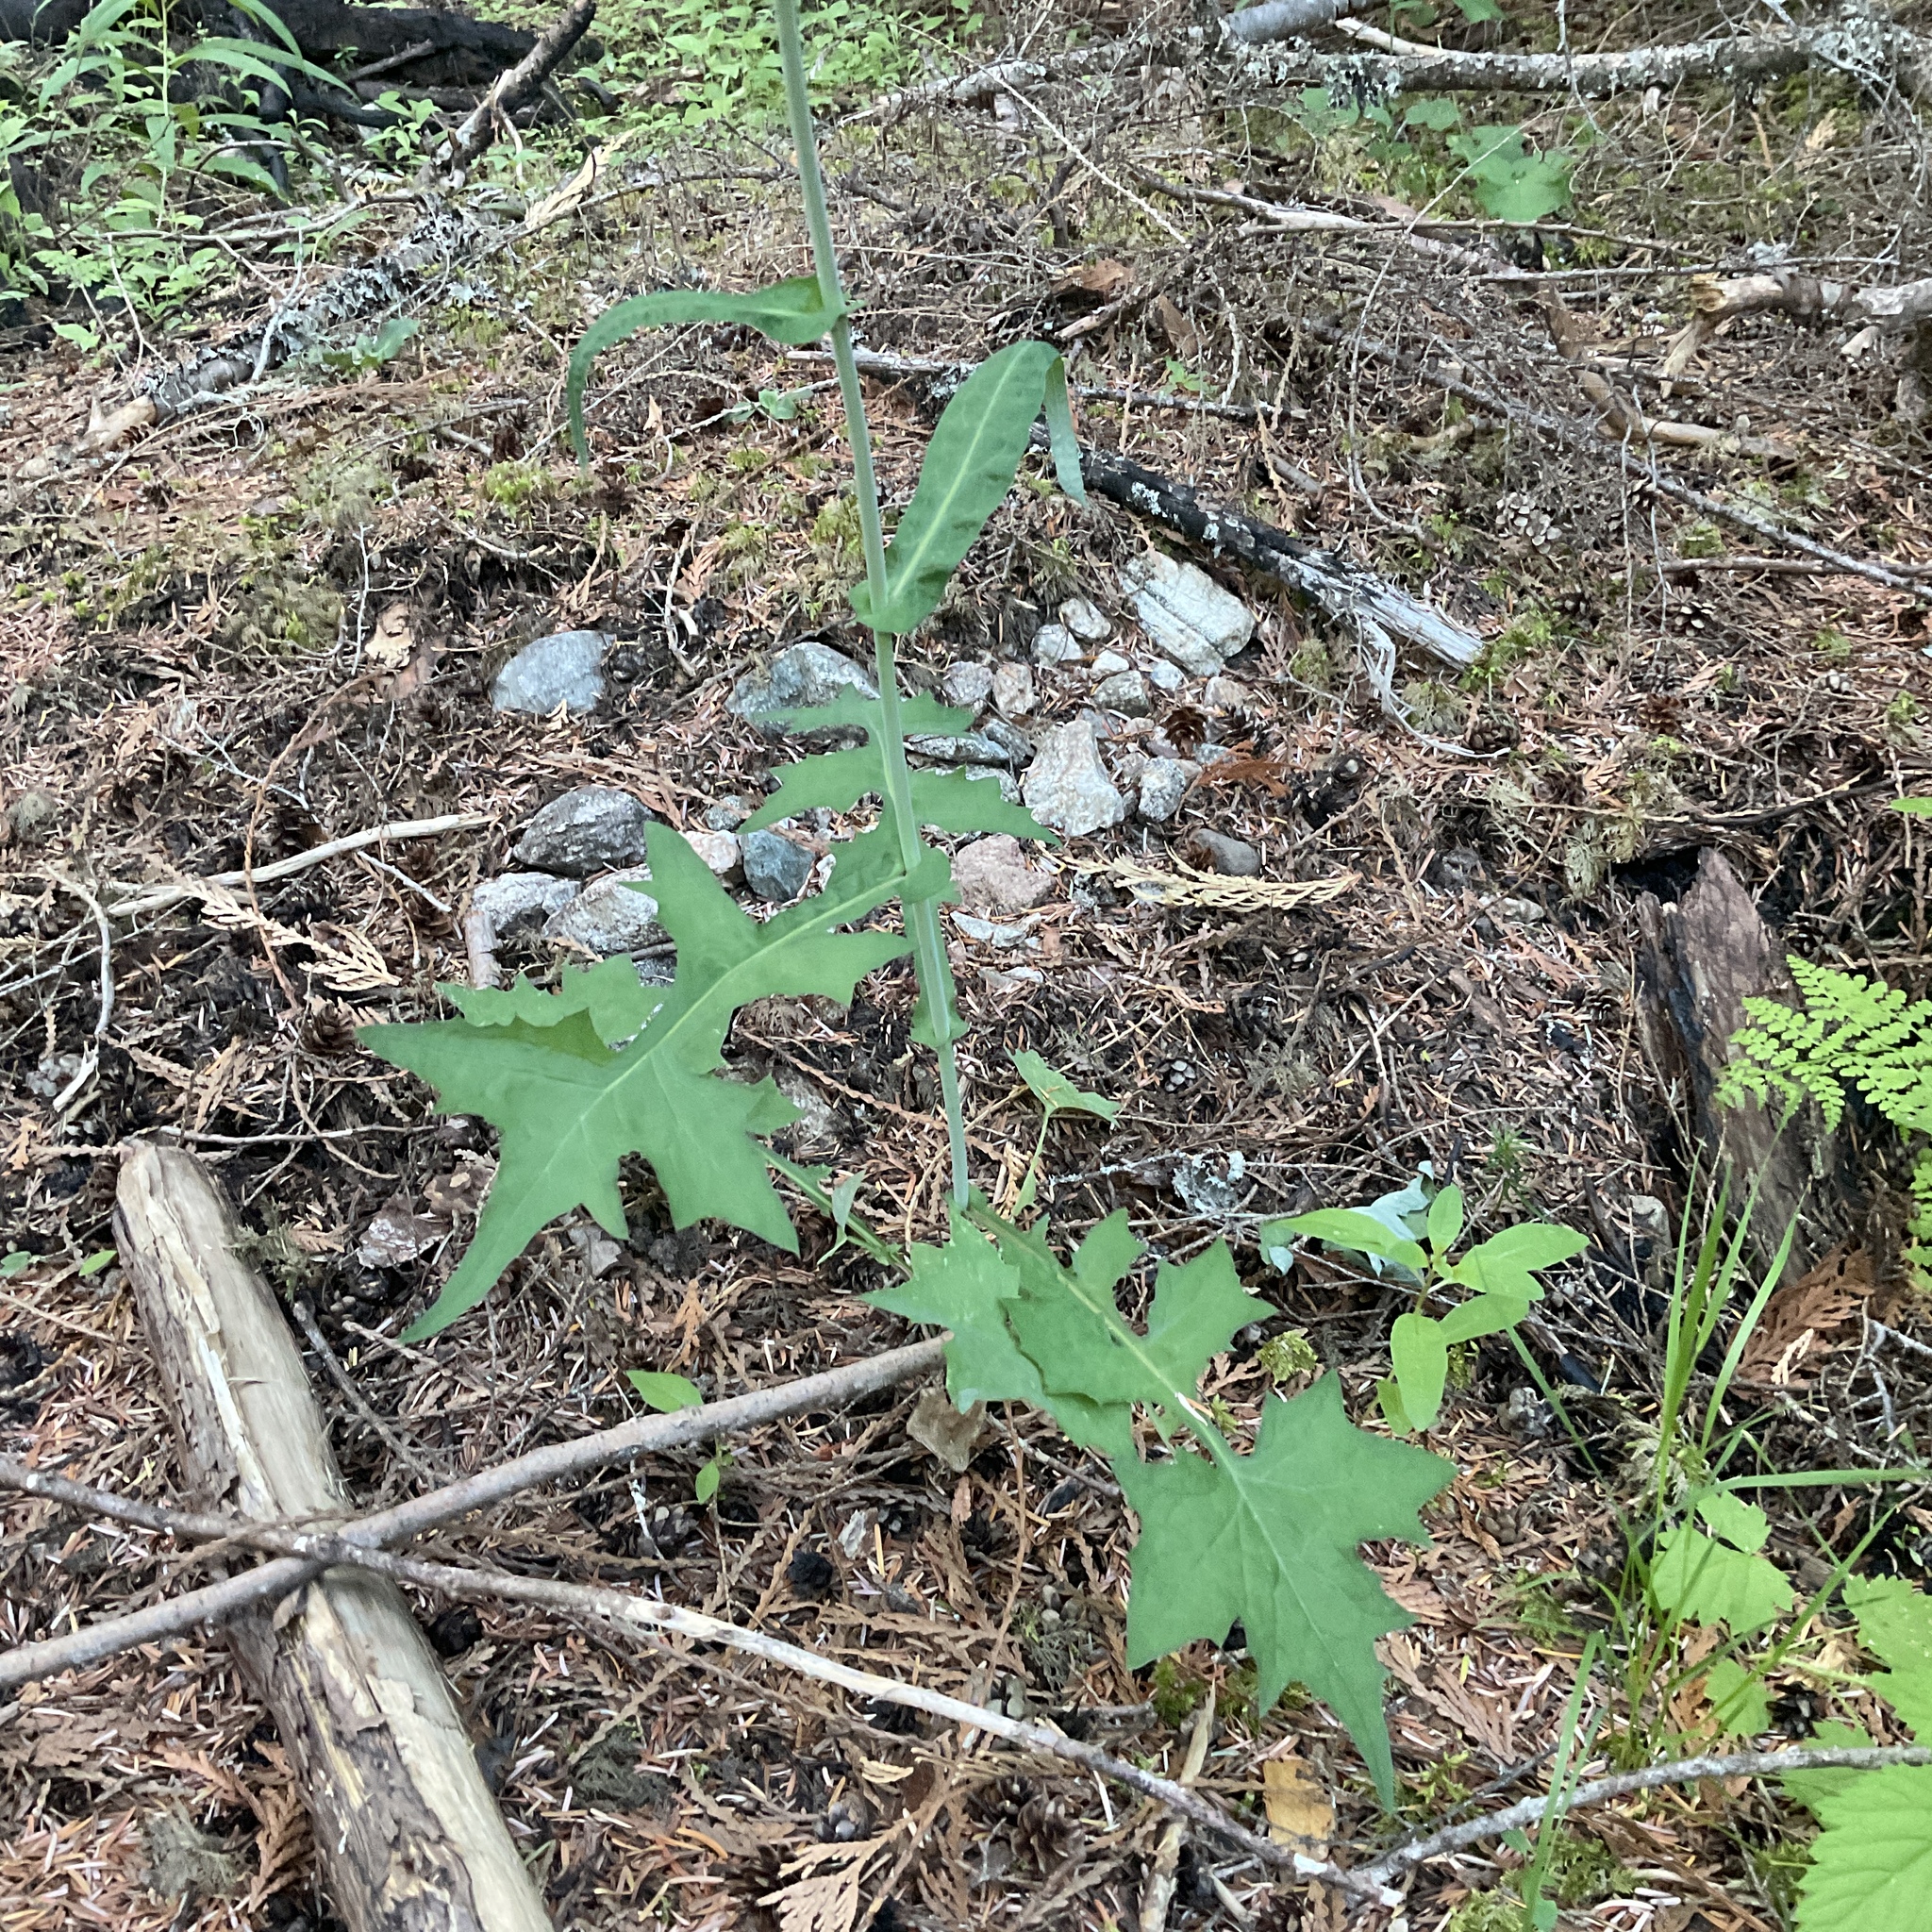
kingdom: Plantae
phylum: Tracheophyta
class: Magnoliopsida
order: Asterales
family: Asteraceae
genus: Mycelis
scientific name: Mycelis muralis
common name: Wall lettuce
